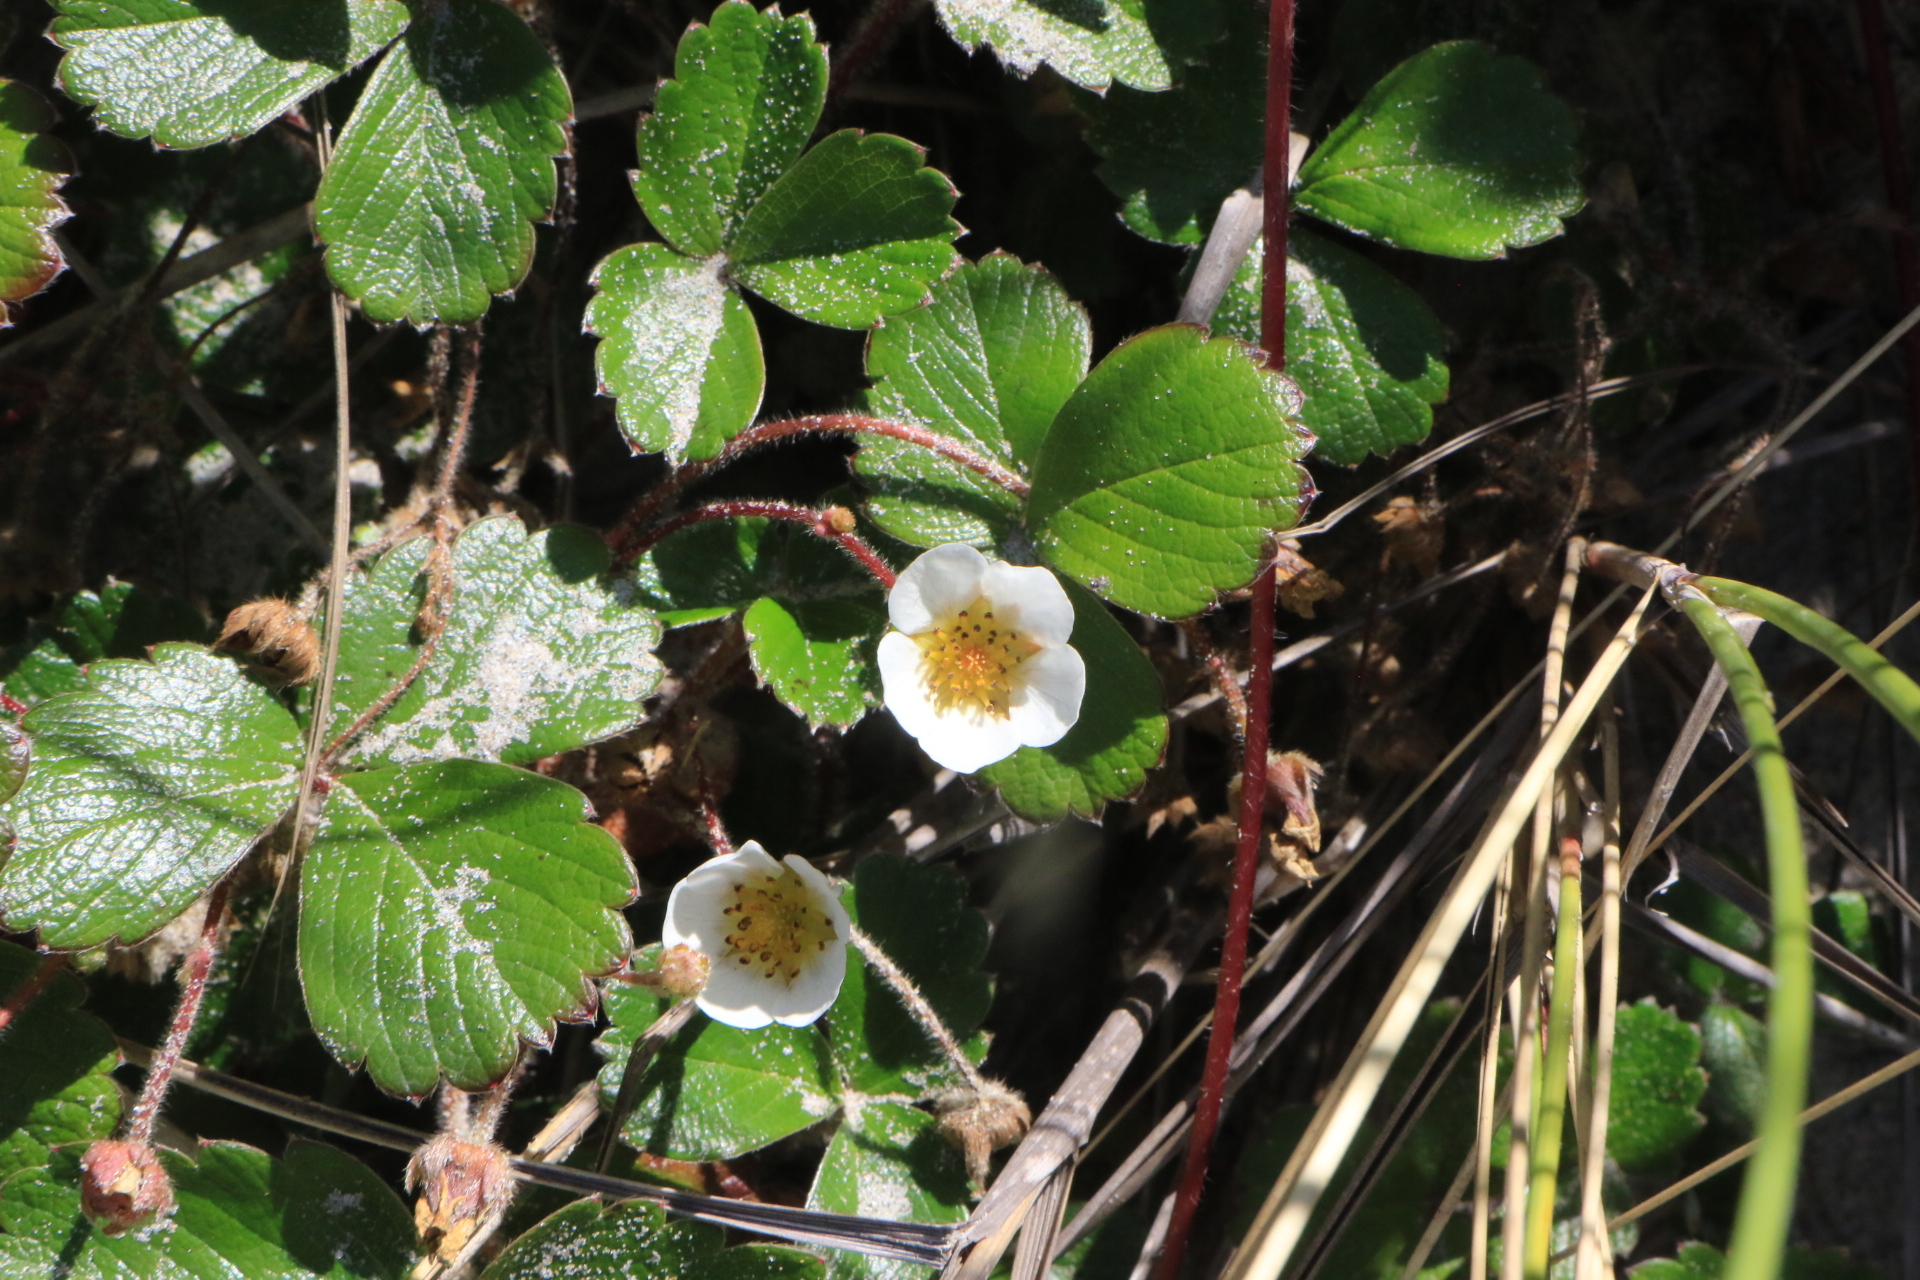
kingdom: Plantae
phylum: Tracheophyta
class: Magnoliopsida
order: Rosales
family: Rosaceae
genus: Fragaria
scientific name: Fragaria chiloensis
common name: Beach strawberry
